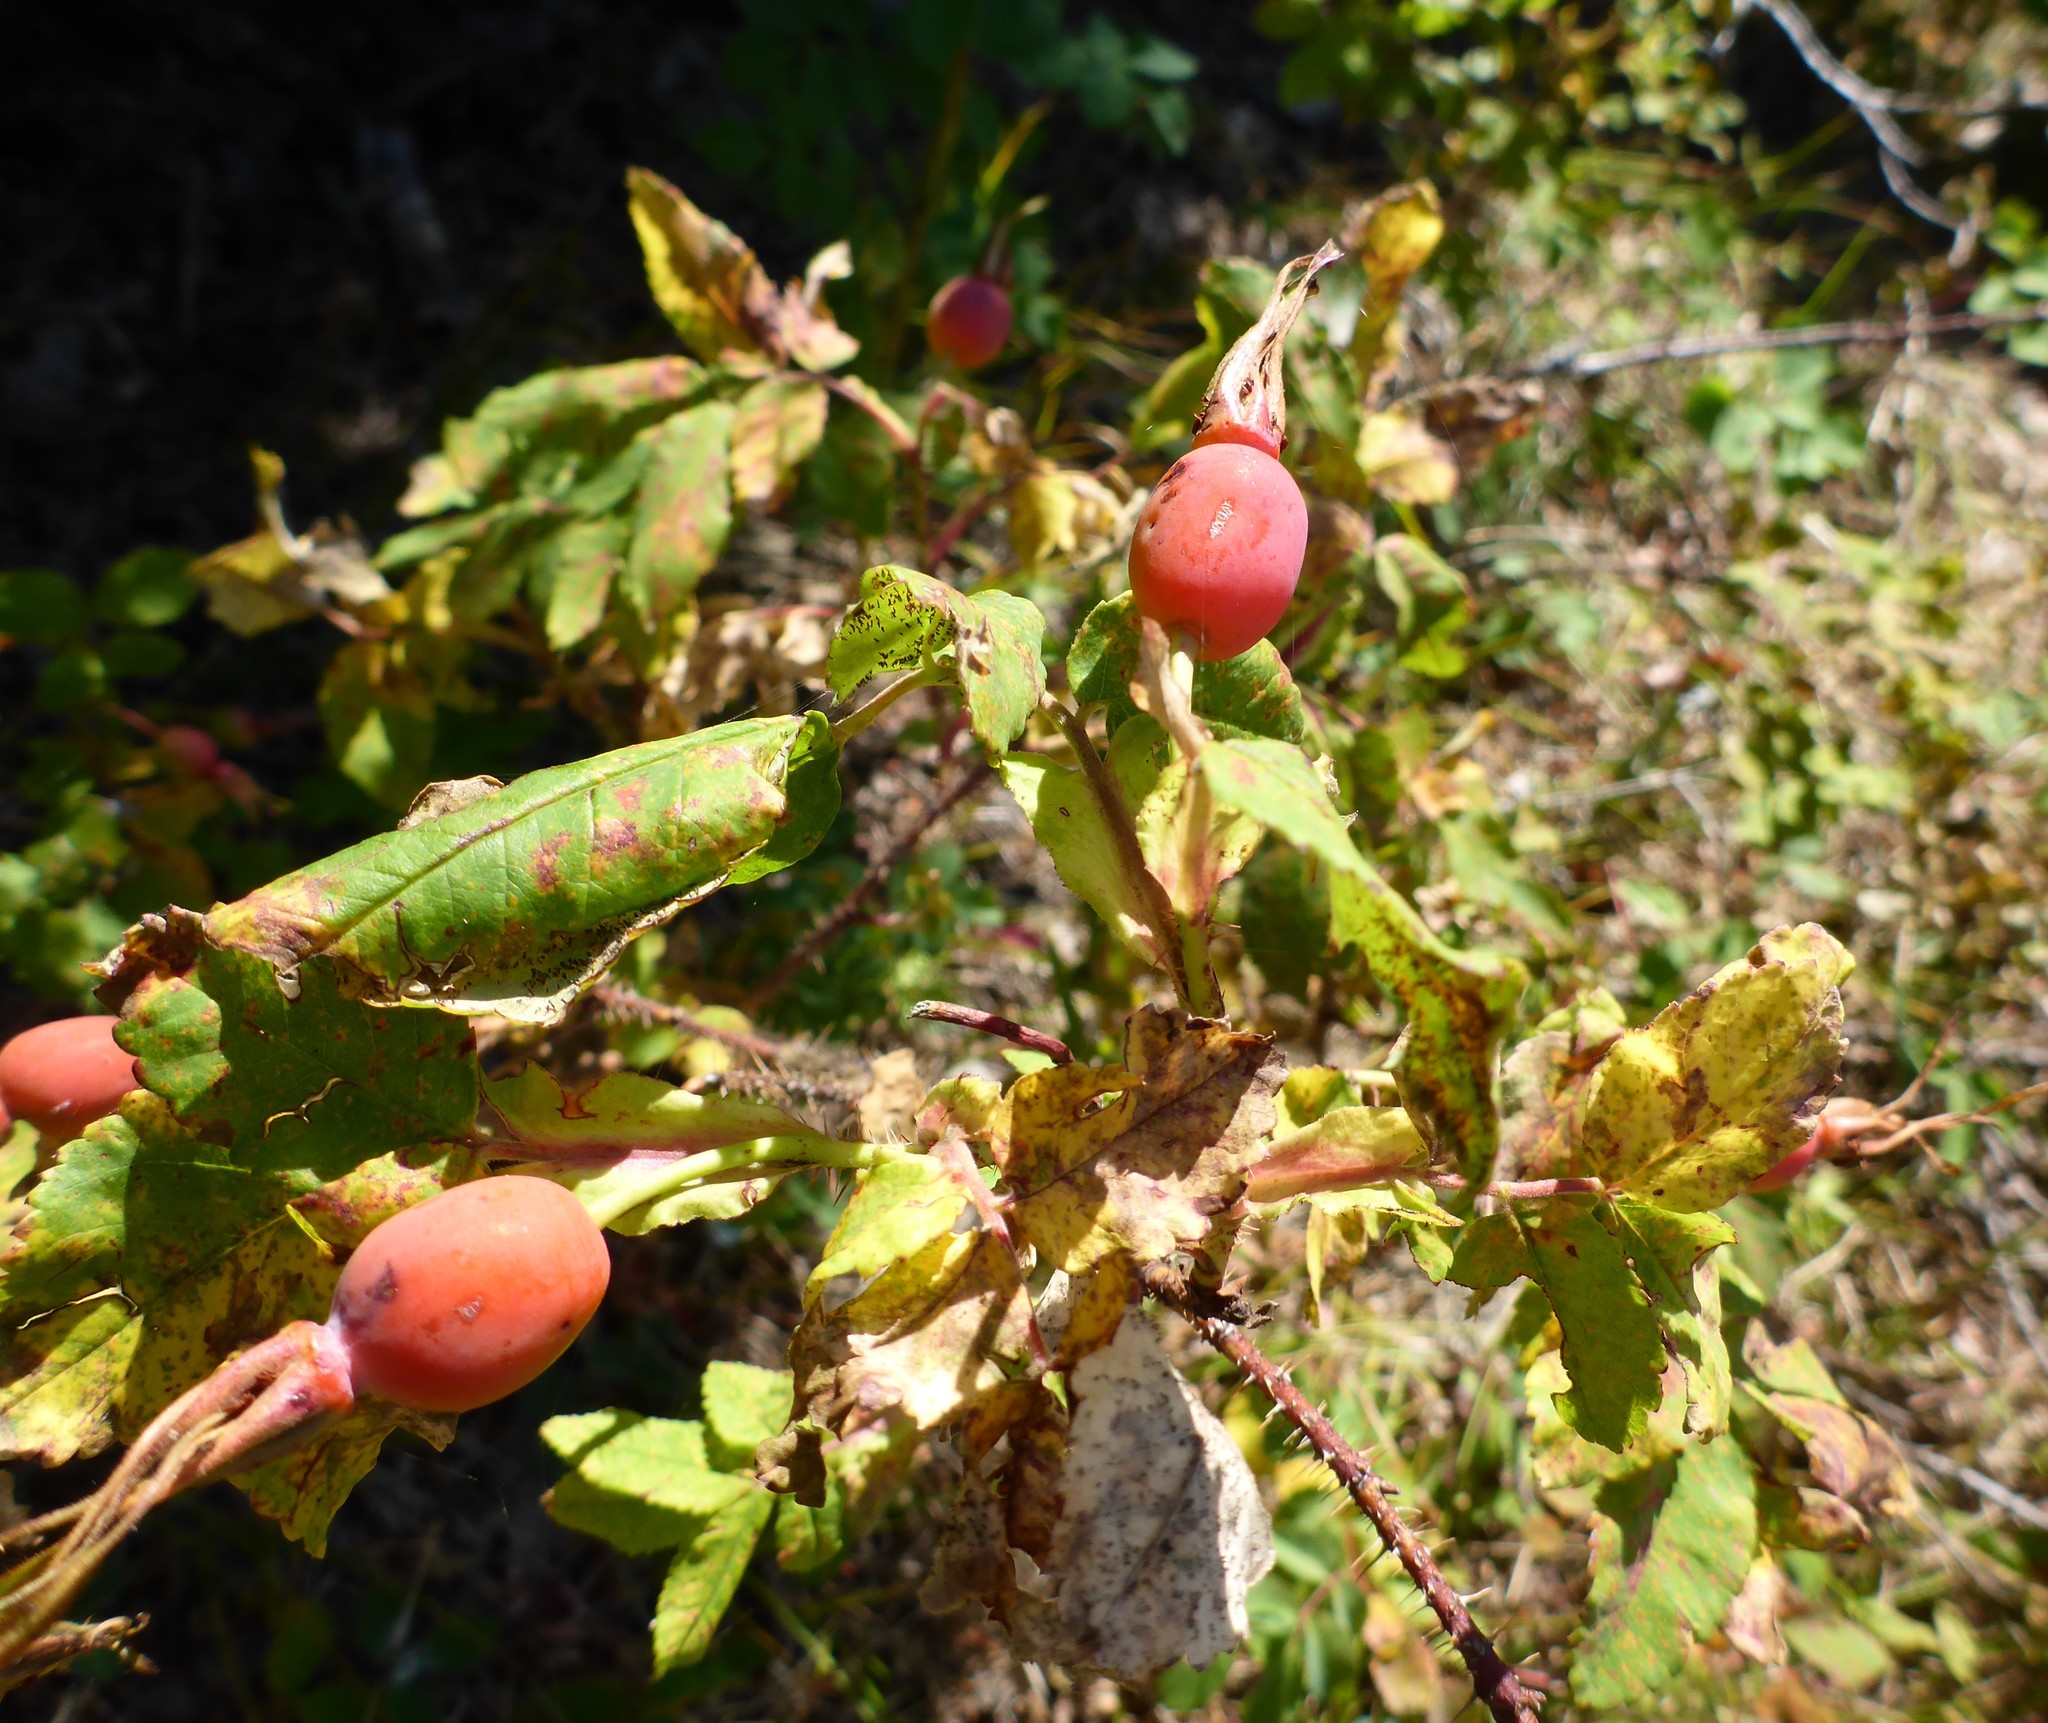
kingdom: Plantae
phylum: Tracheophyta
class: Magnoliopsida
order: Rosales
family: Rosaceae
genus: Rosa
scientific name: Rosa acicularis
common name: Prickly rose
